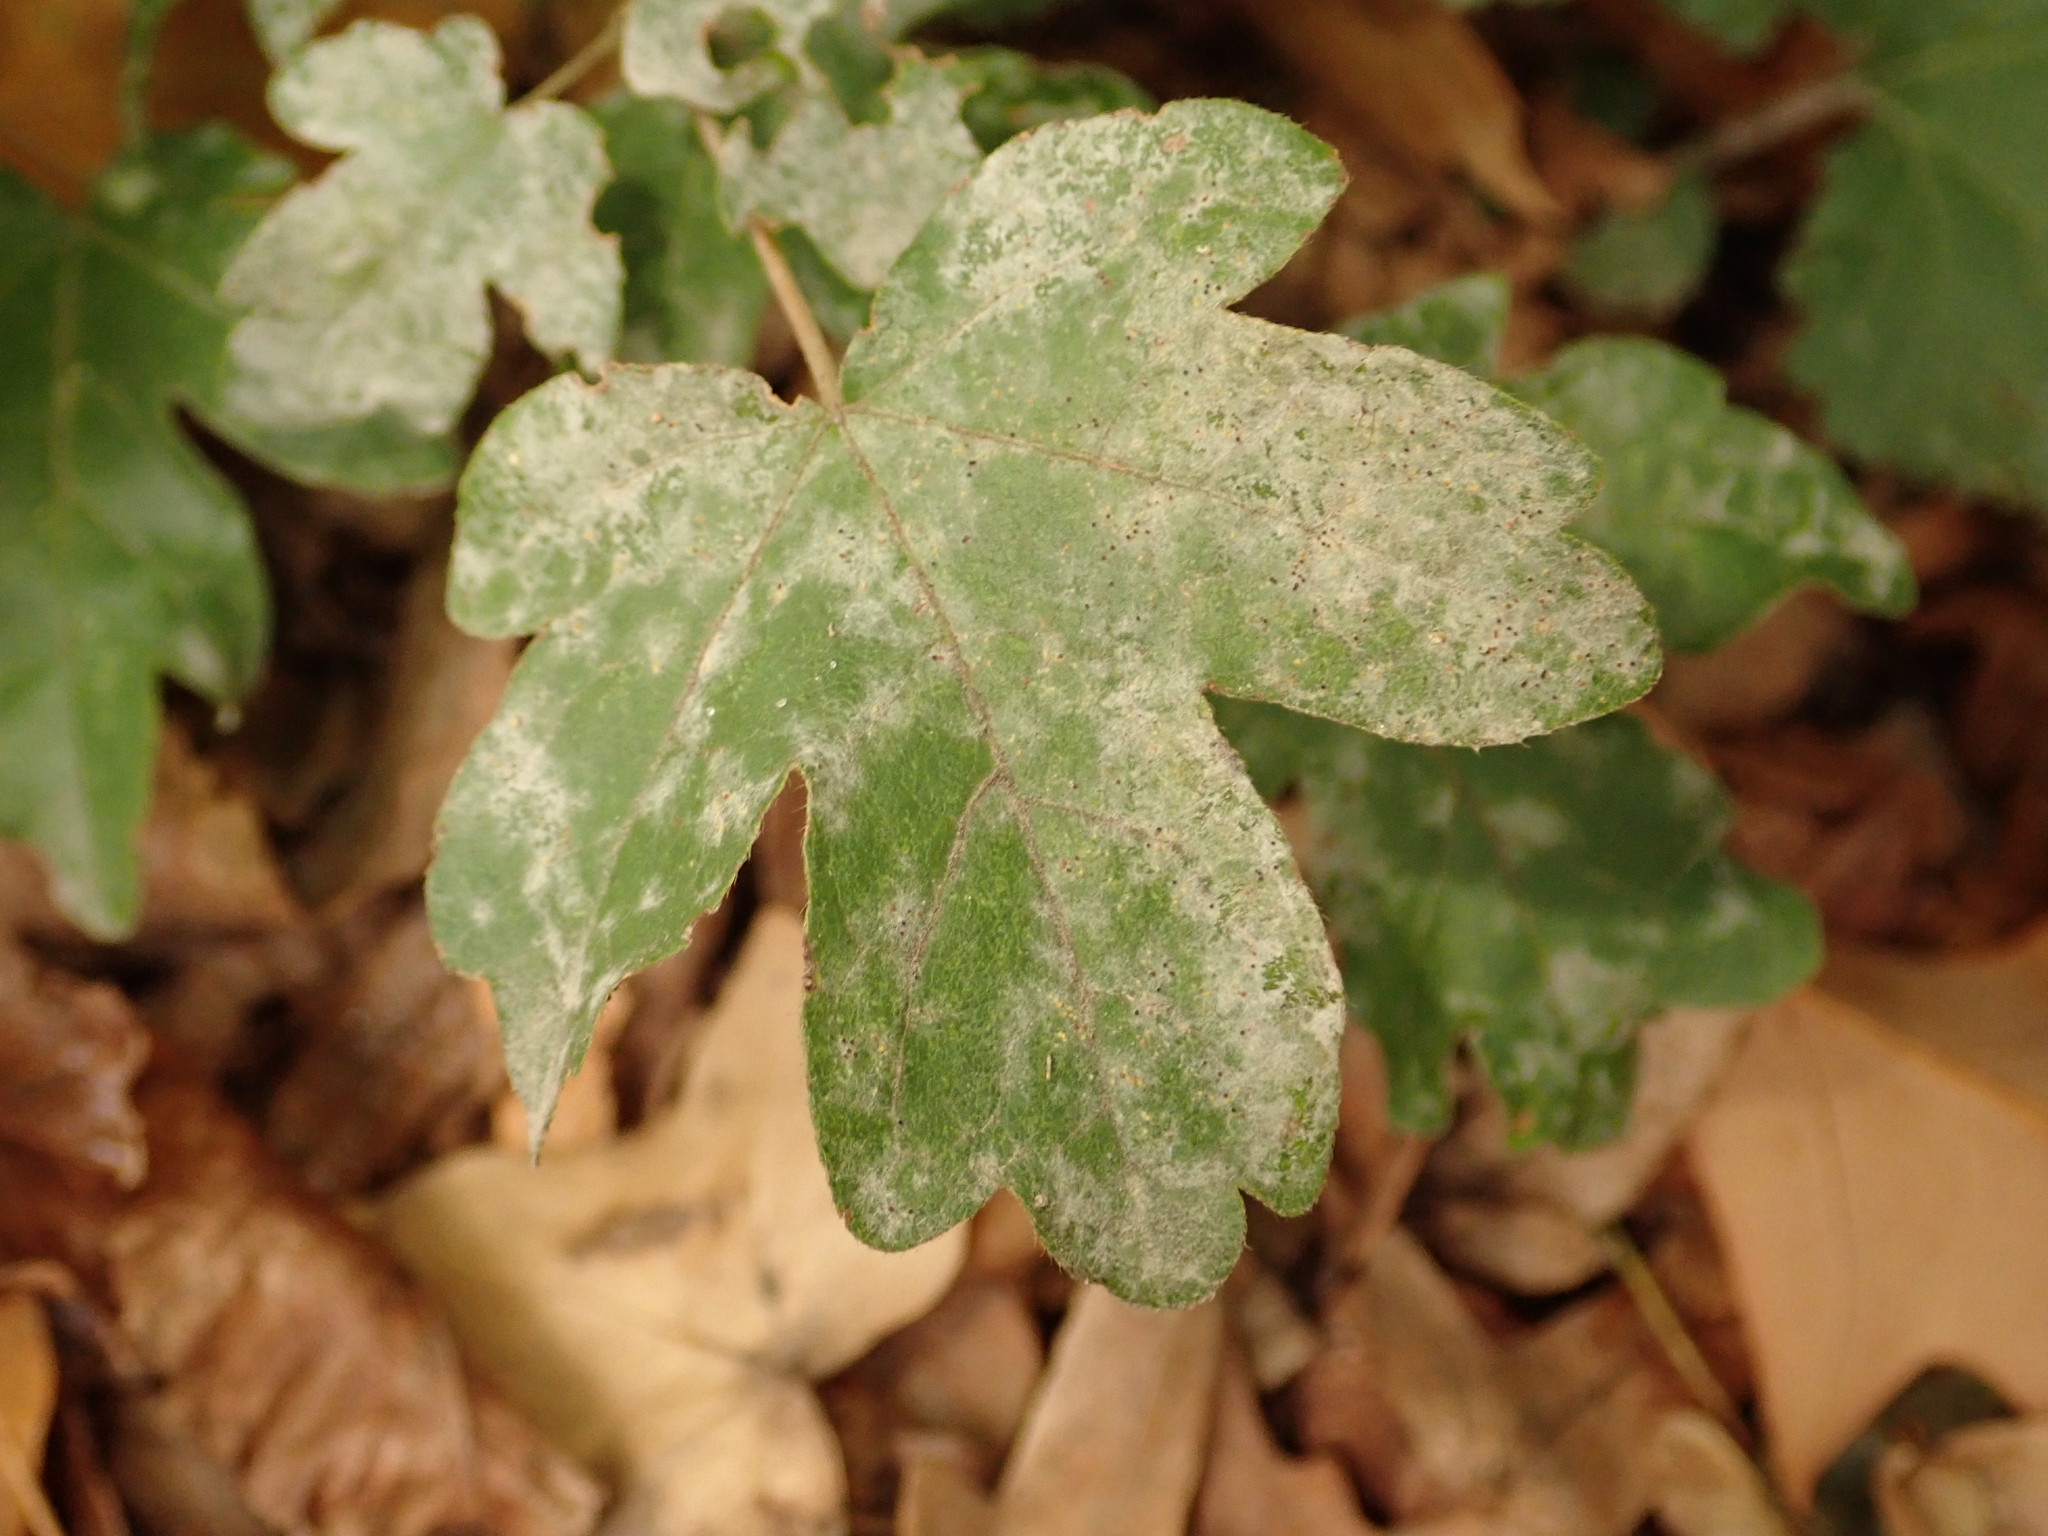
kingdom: Fungi
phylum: Ascomycota
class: Leotiomycetes
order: Helotiales
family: Erysiphaceae
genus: Sawadaea
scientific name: Sawadaea bicornis
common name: Maple mildew
